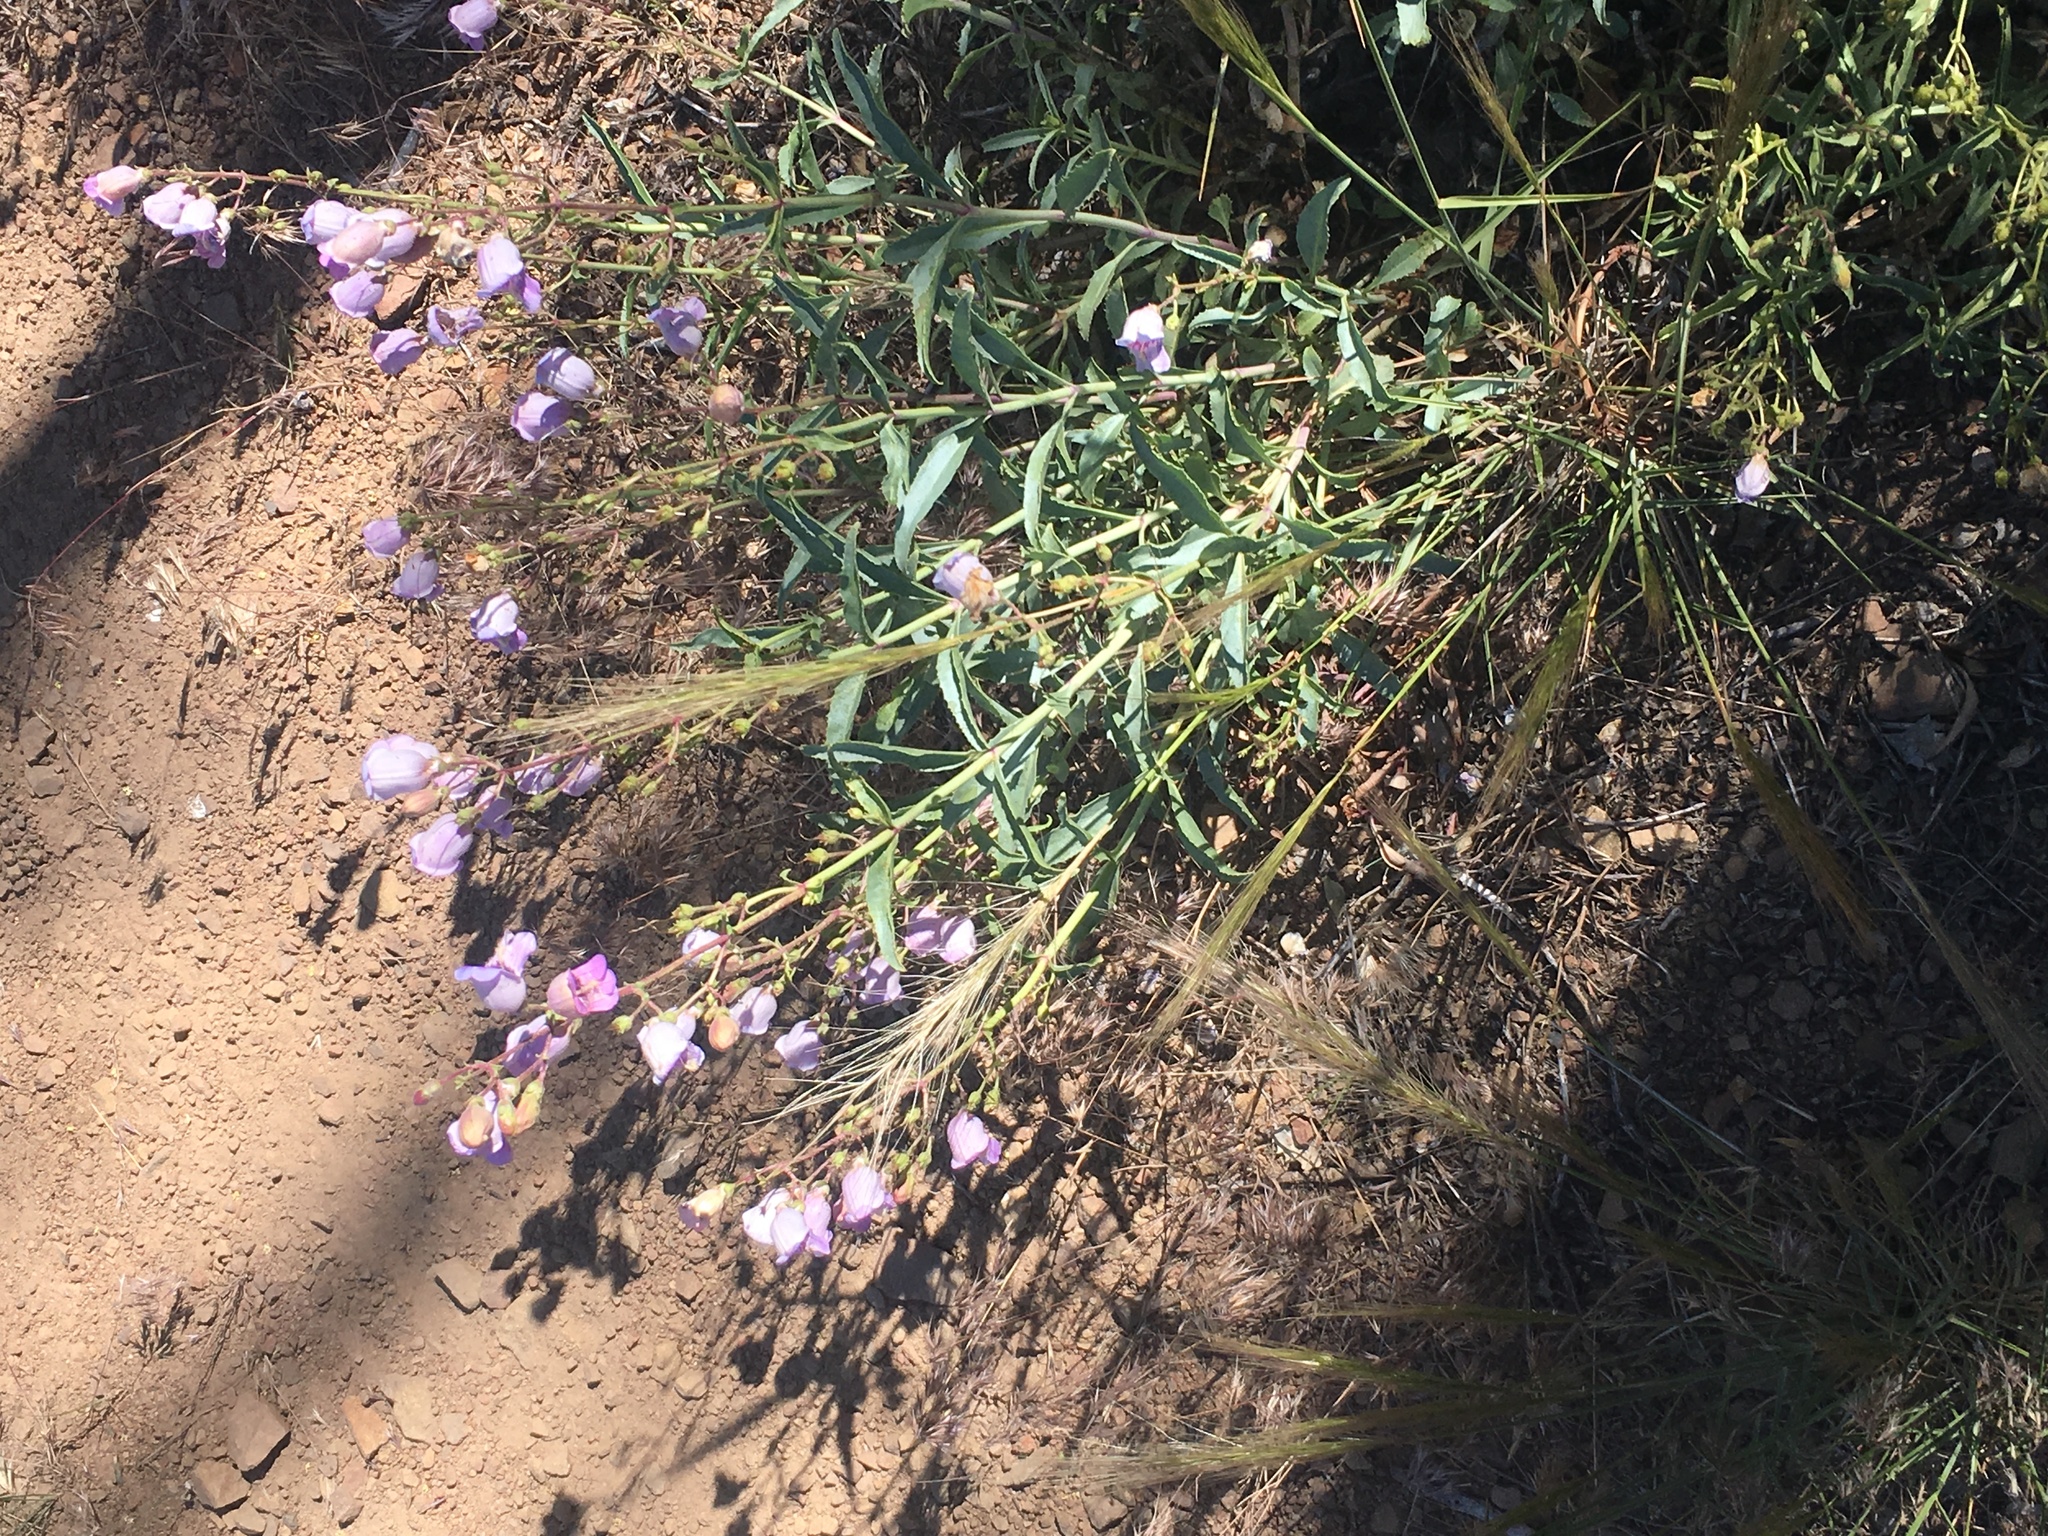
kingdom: Plantae
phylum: Tracheophyta
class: Magnoliopsida
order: Lamiales
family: Plantaginaceae
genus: Penstemon
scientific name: Penstemon grinnellii
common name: Grinnell's beardtongue
